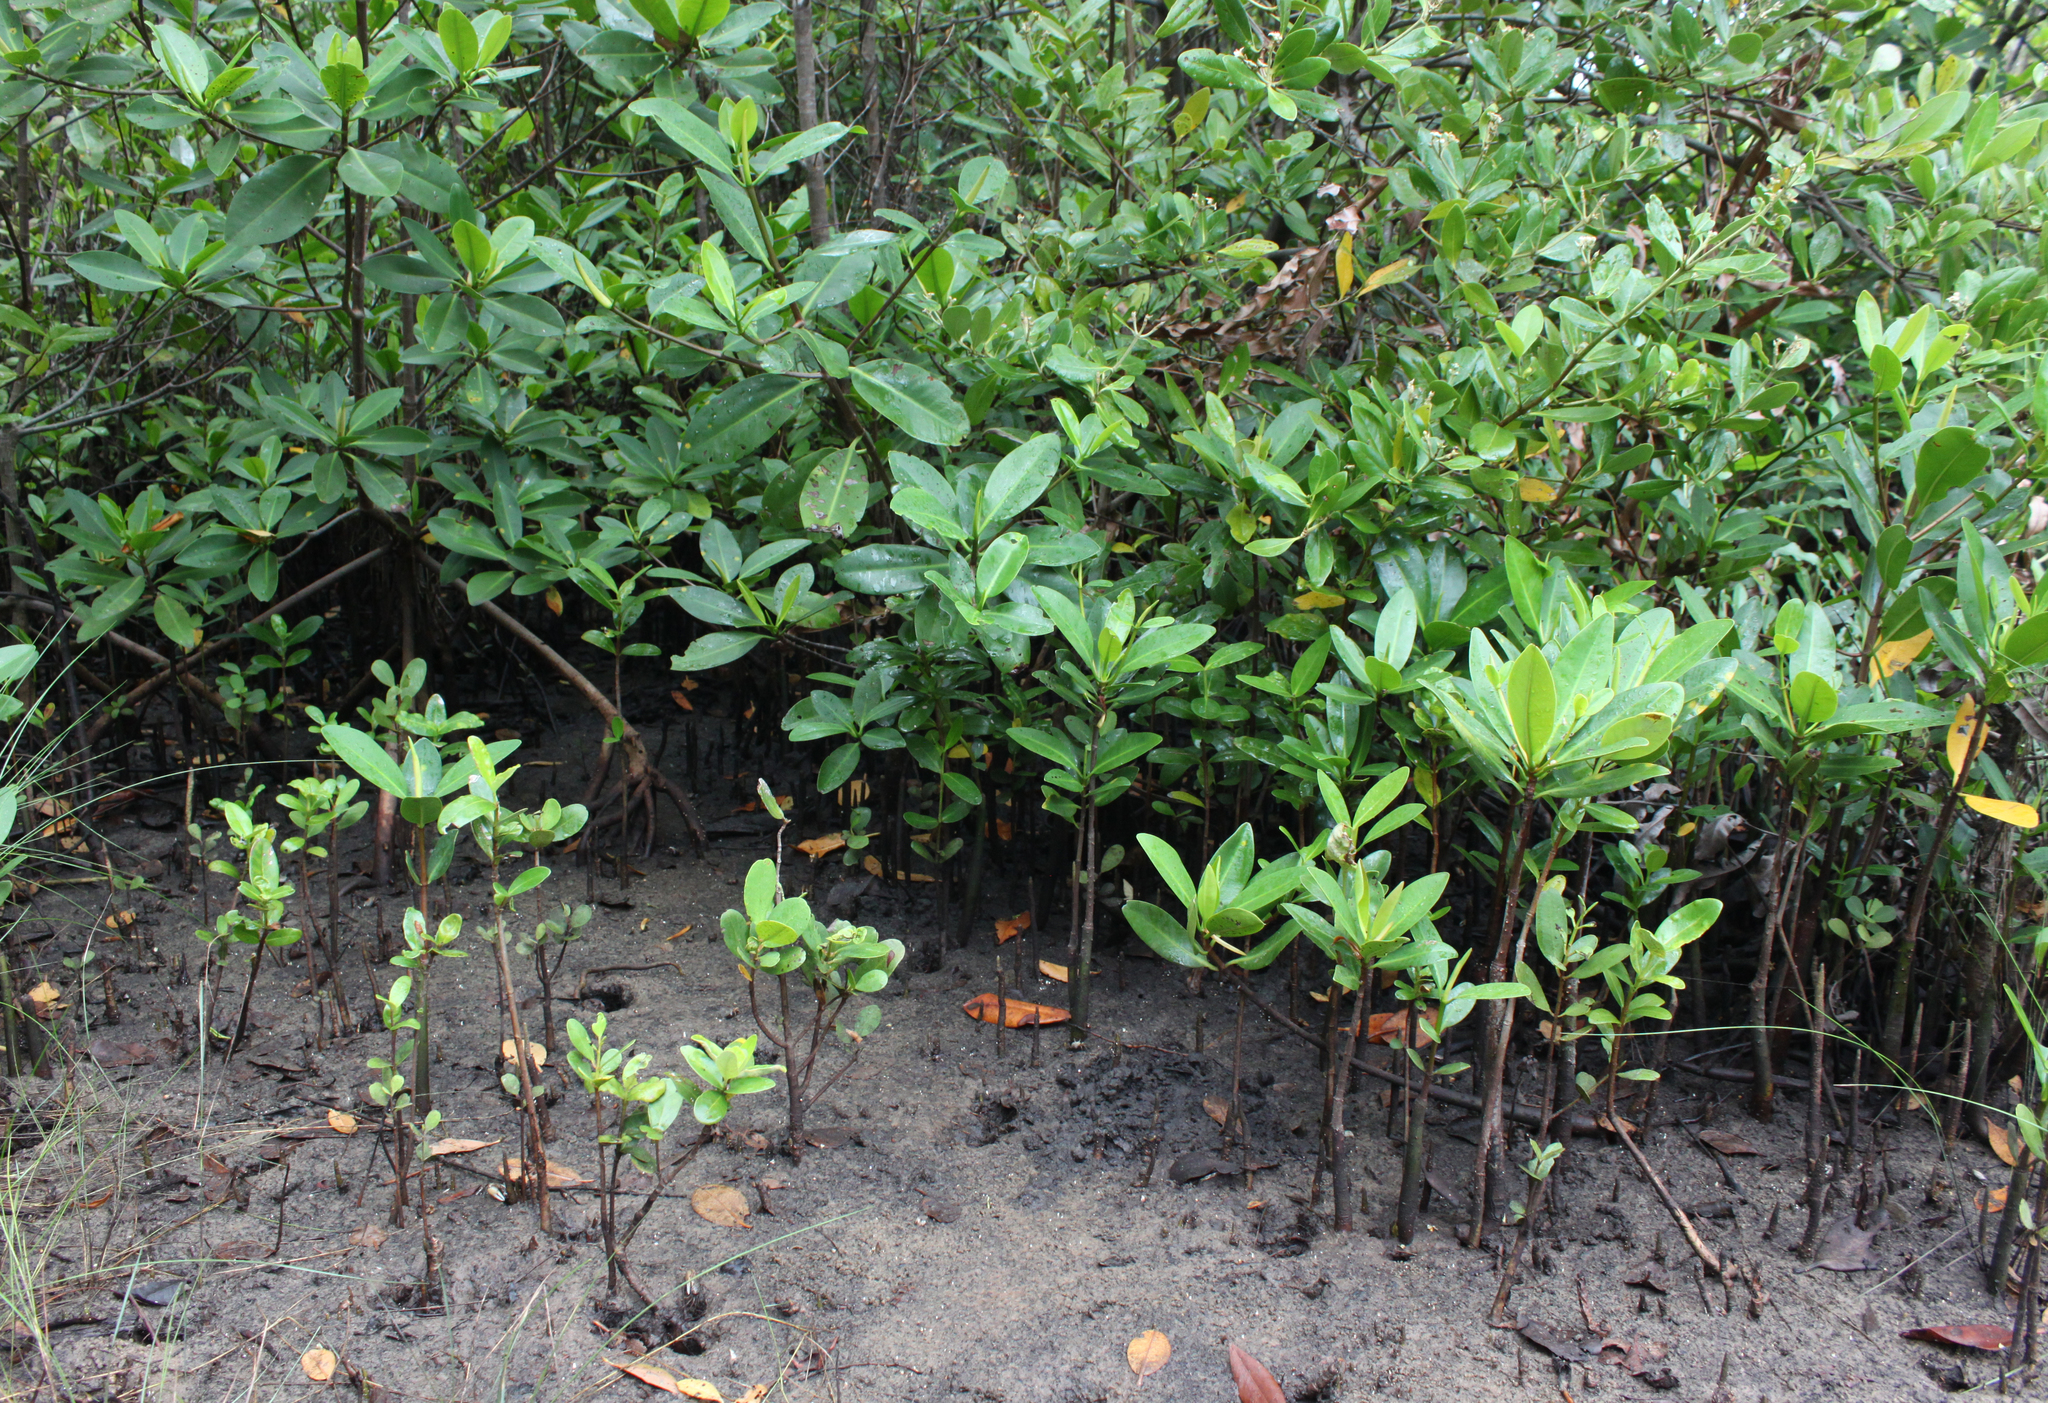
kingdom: Plantae
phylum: Tracheophyta
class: Magnoliopsida
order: Malpighiales
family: Rhizophoraceae
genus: Rhizophora
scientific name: Rhizophora mangle
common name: Red mangrove
